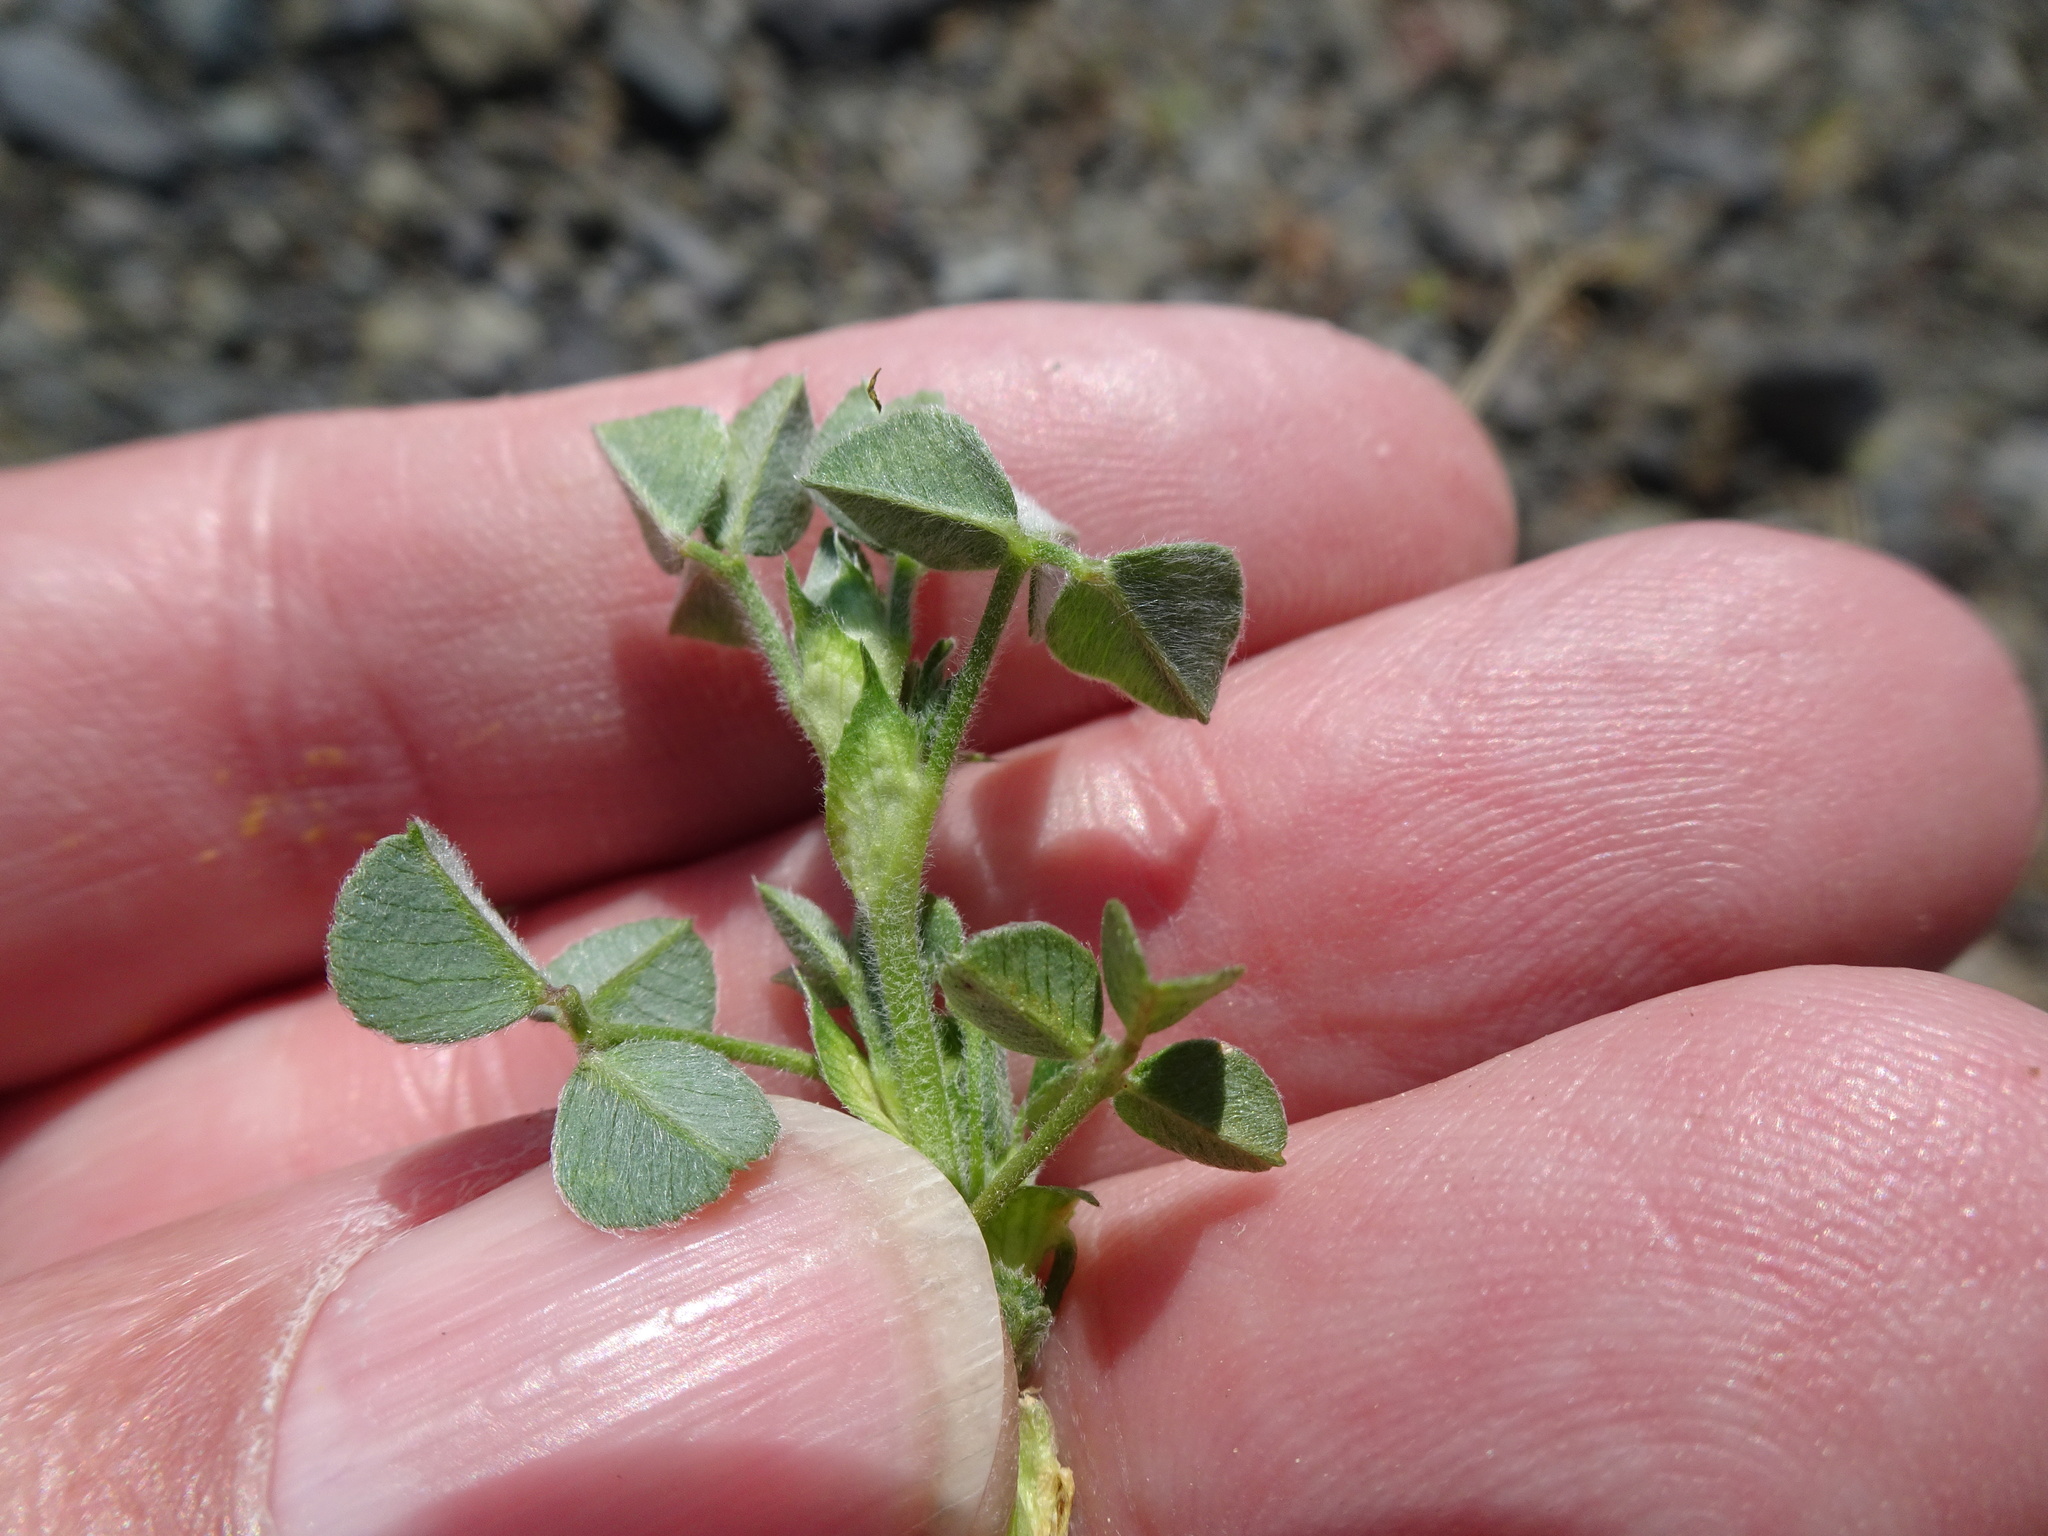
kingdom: Plantae
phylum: Tracheophyta
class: Magnoliopsida
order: Fabales
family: Fabaceae
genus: Medicago
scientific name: Medicago lupulina
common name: Black medick
